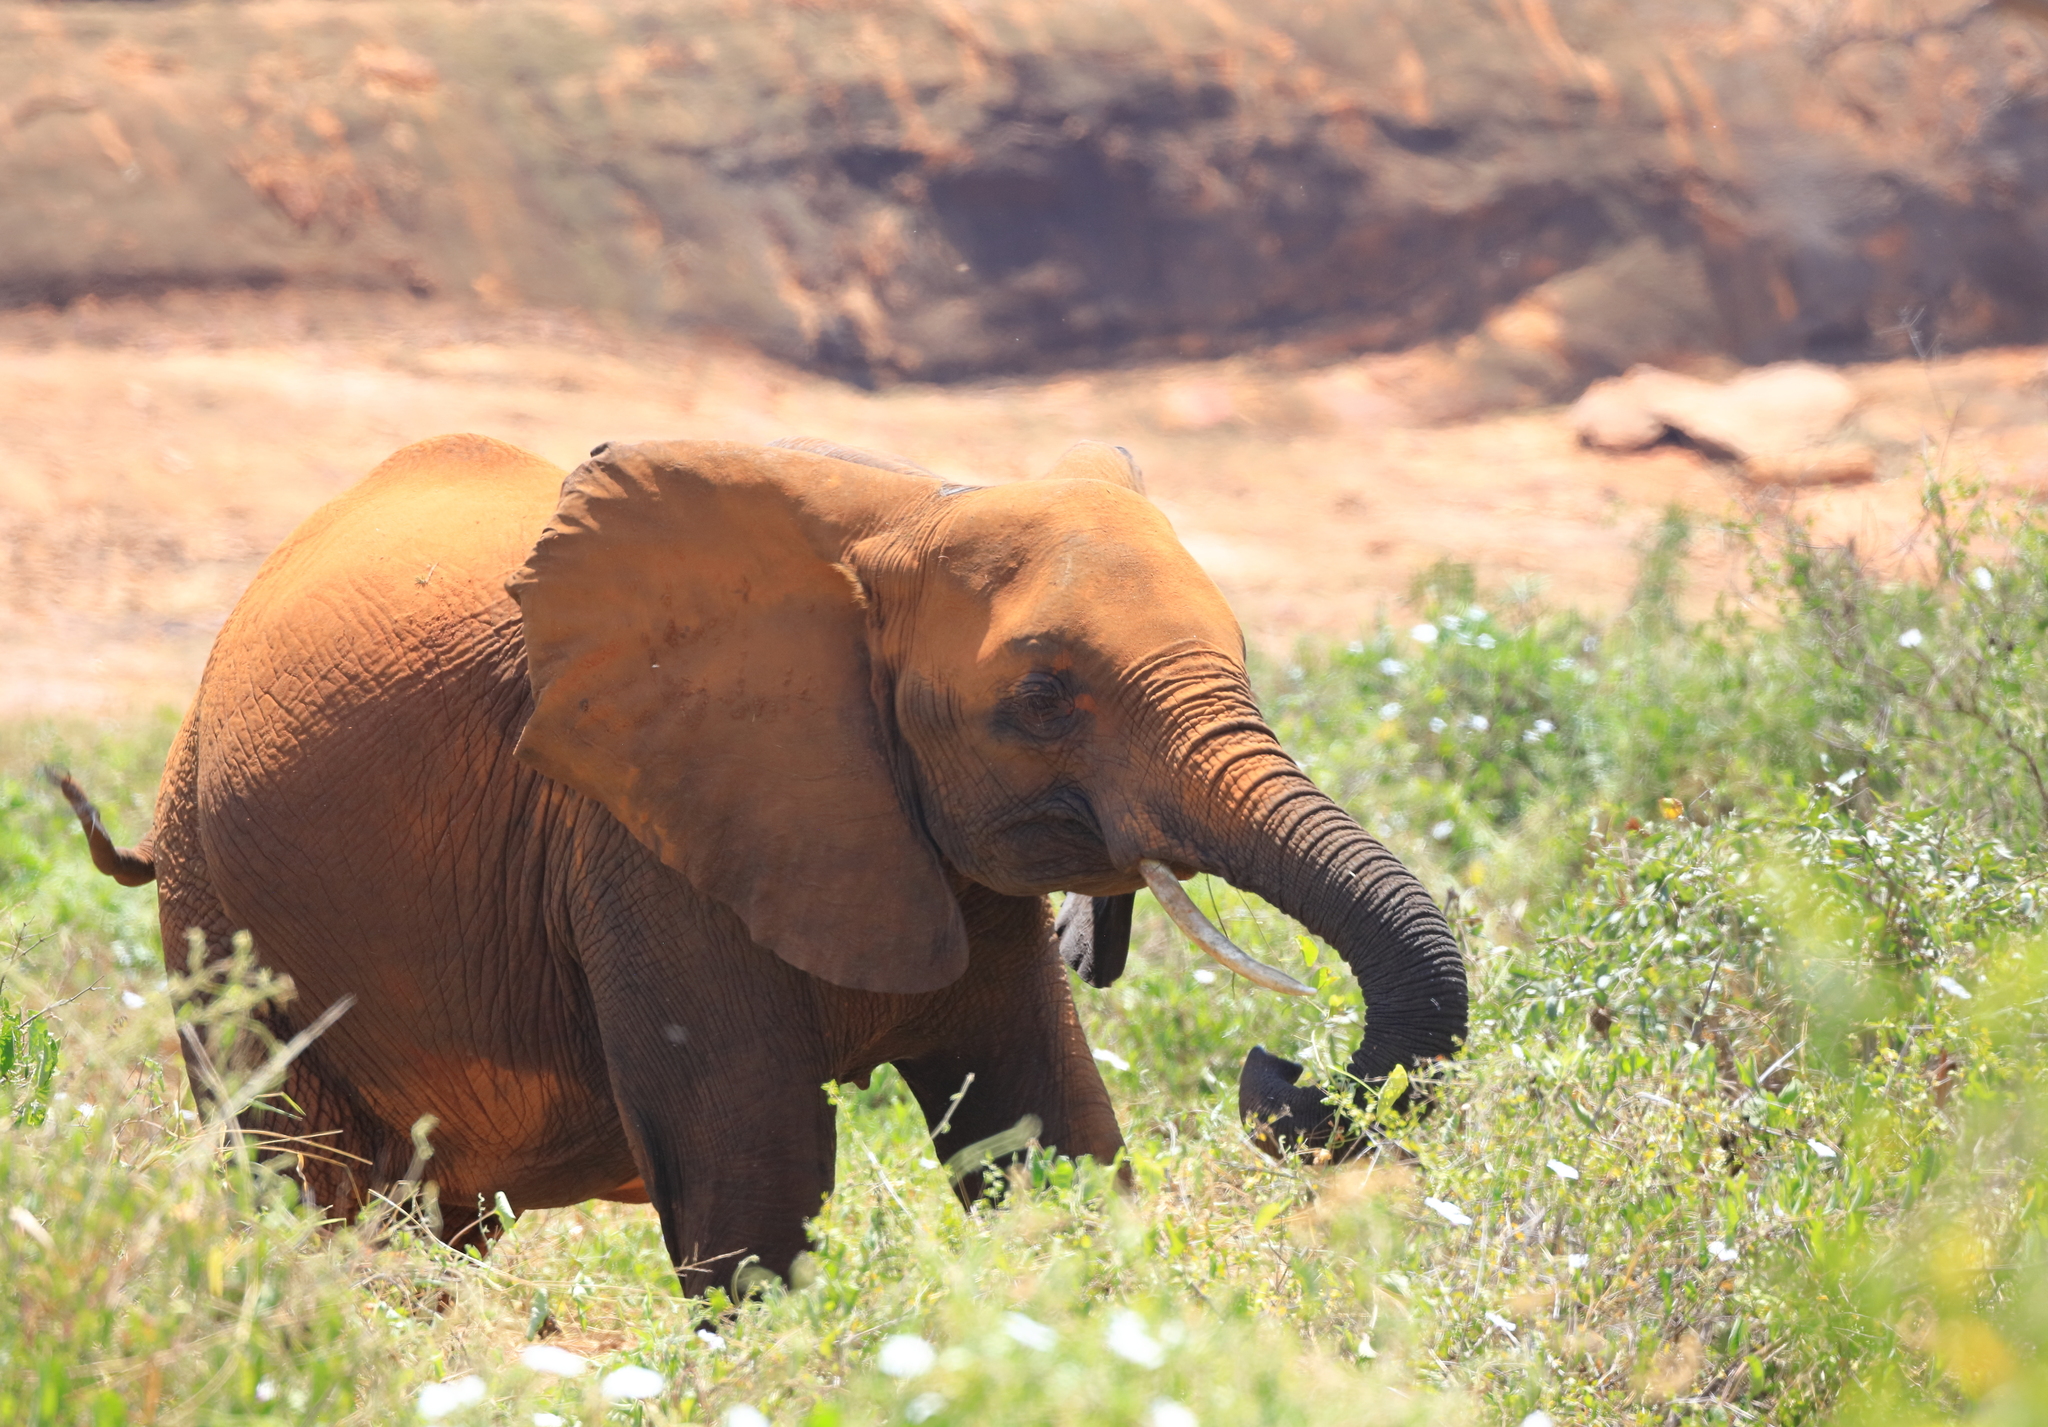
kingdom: Animalia
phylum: Chordata
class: Mammalia
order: Proboscidea
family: Elephantidae
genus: Loxodonta
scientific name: Loxodonta africana
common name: African elephant
